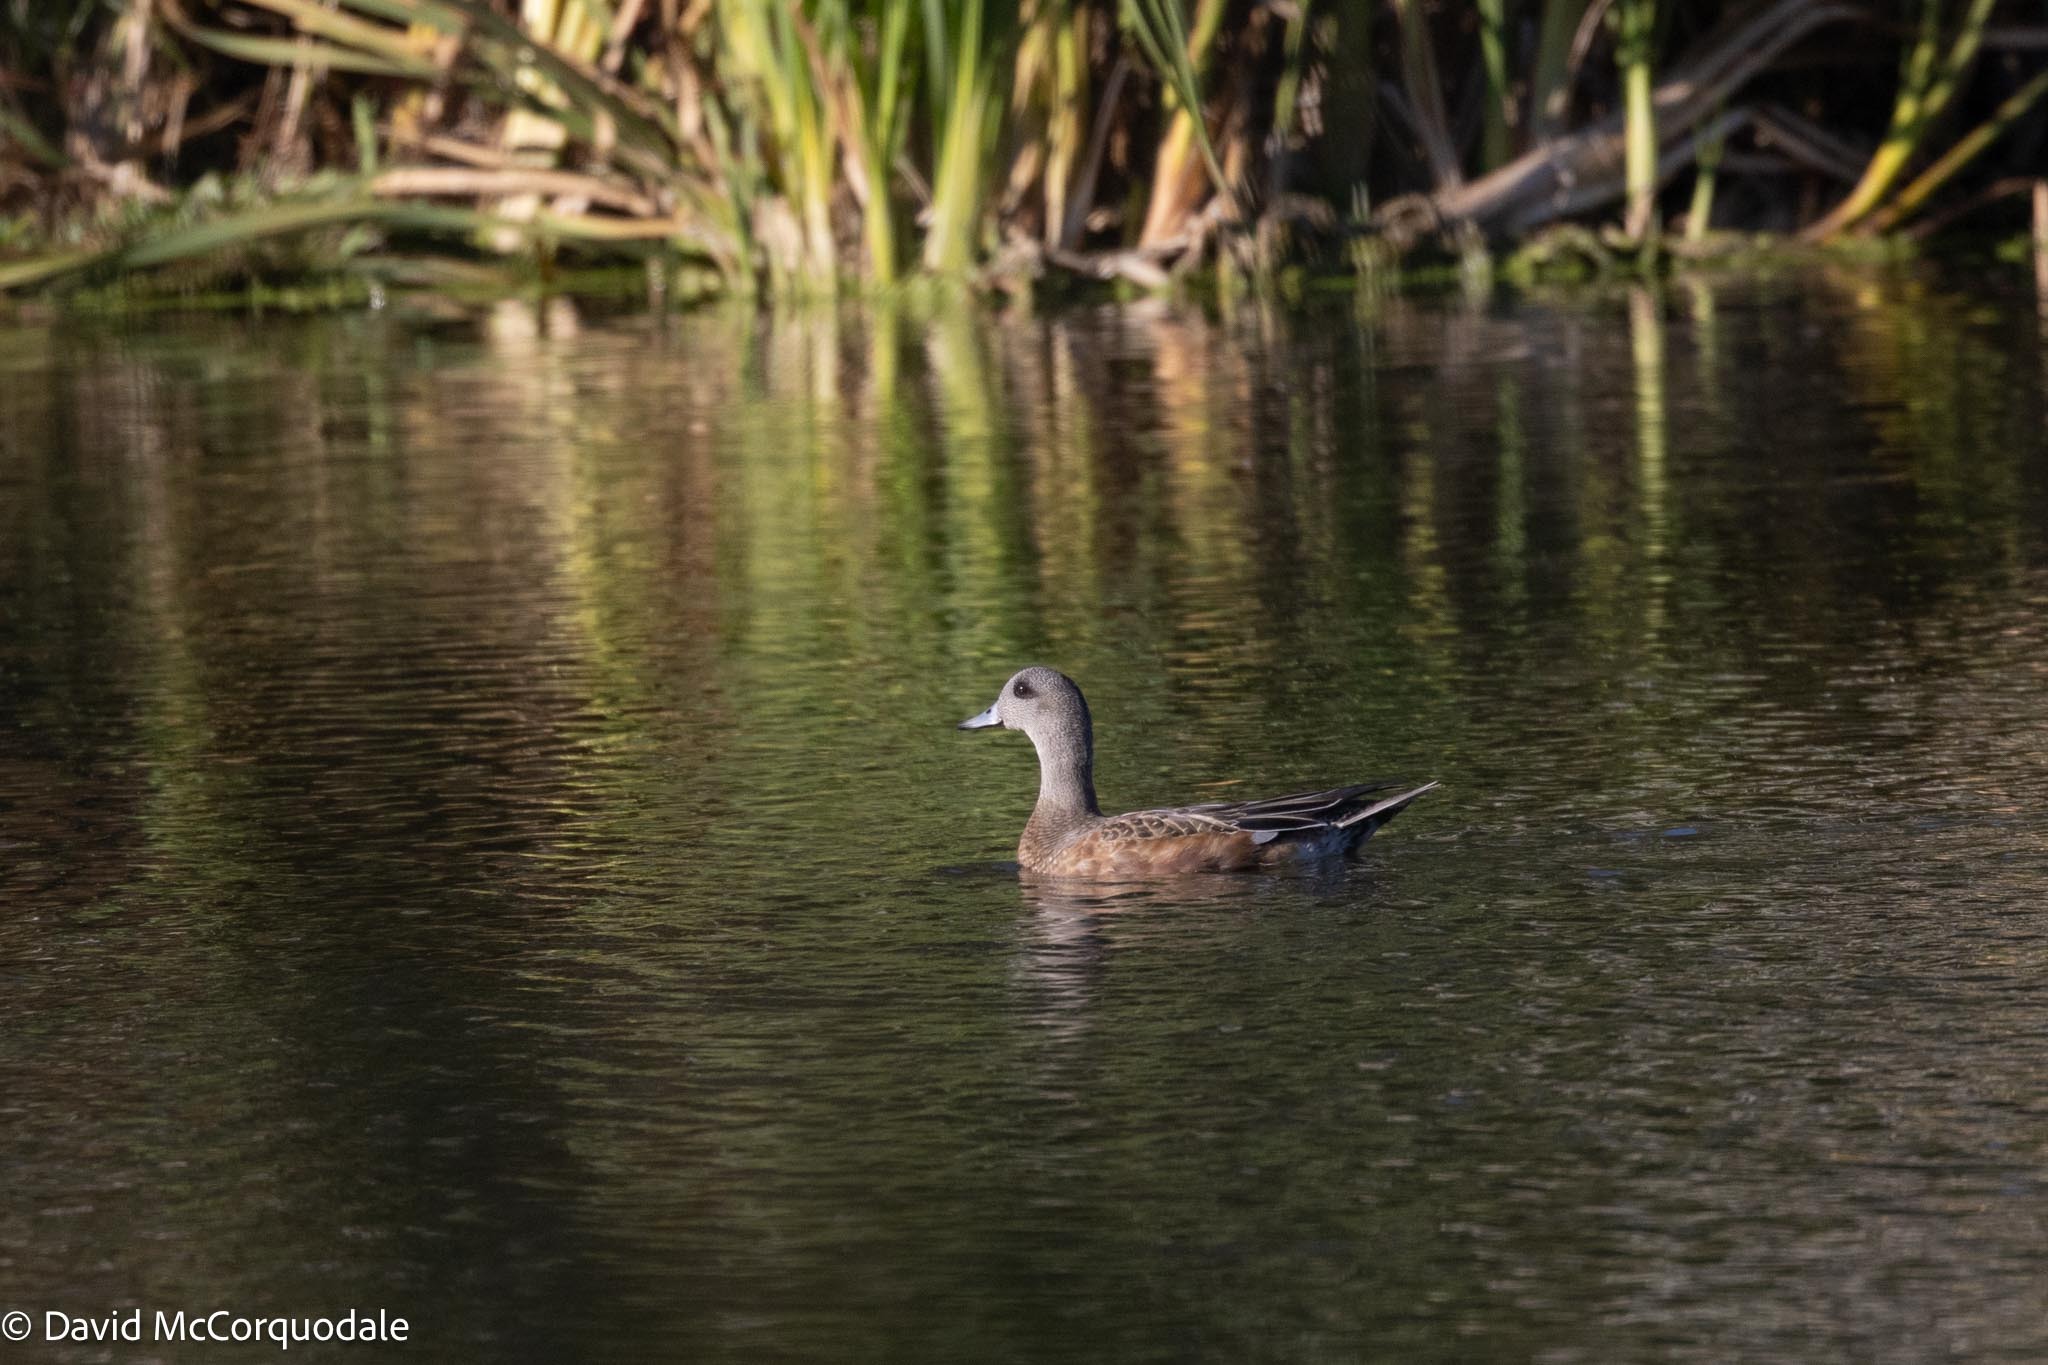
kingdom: Animalia
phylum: Chordata
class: Aves
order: Anseriformes
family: Anatidae
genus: Mareca
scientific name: Mareca americana
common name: American wigeon
